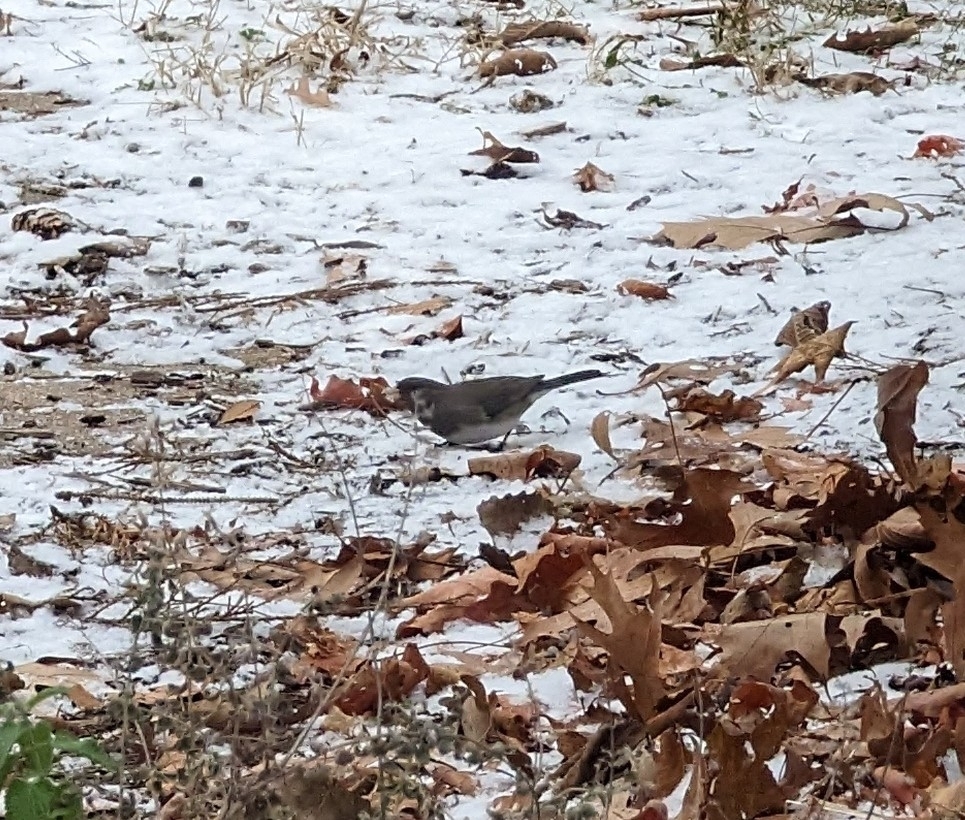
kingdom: Animalia
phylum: Chordata
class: Aves
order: Passeriformes
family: Passerellidae
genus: Junco
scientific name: Junco hyemalis
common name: Dark-eyed junco
